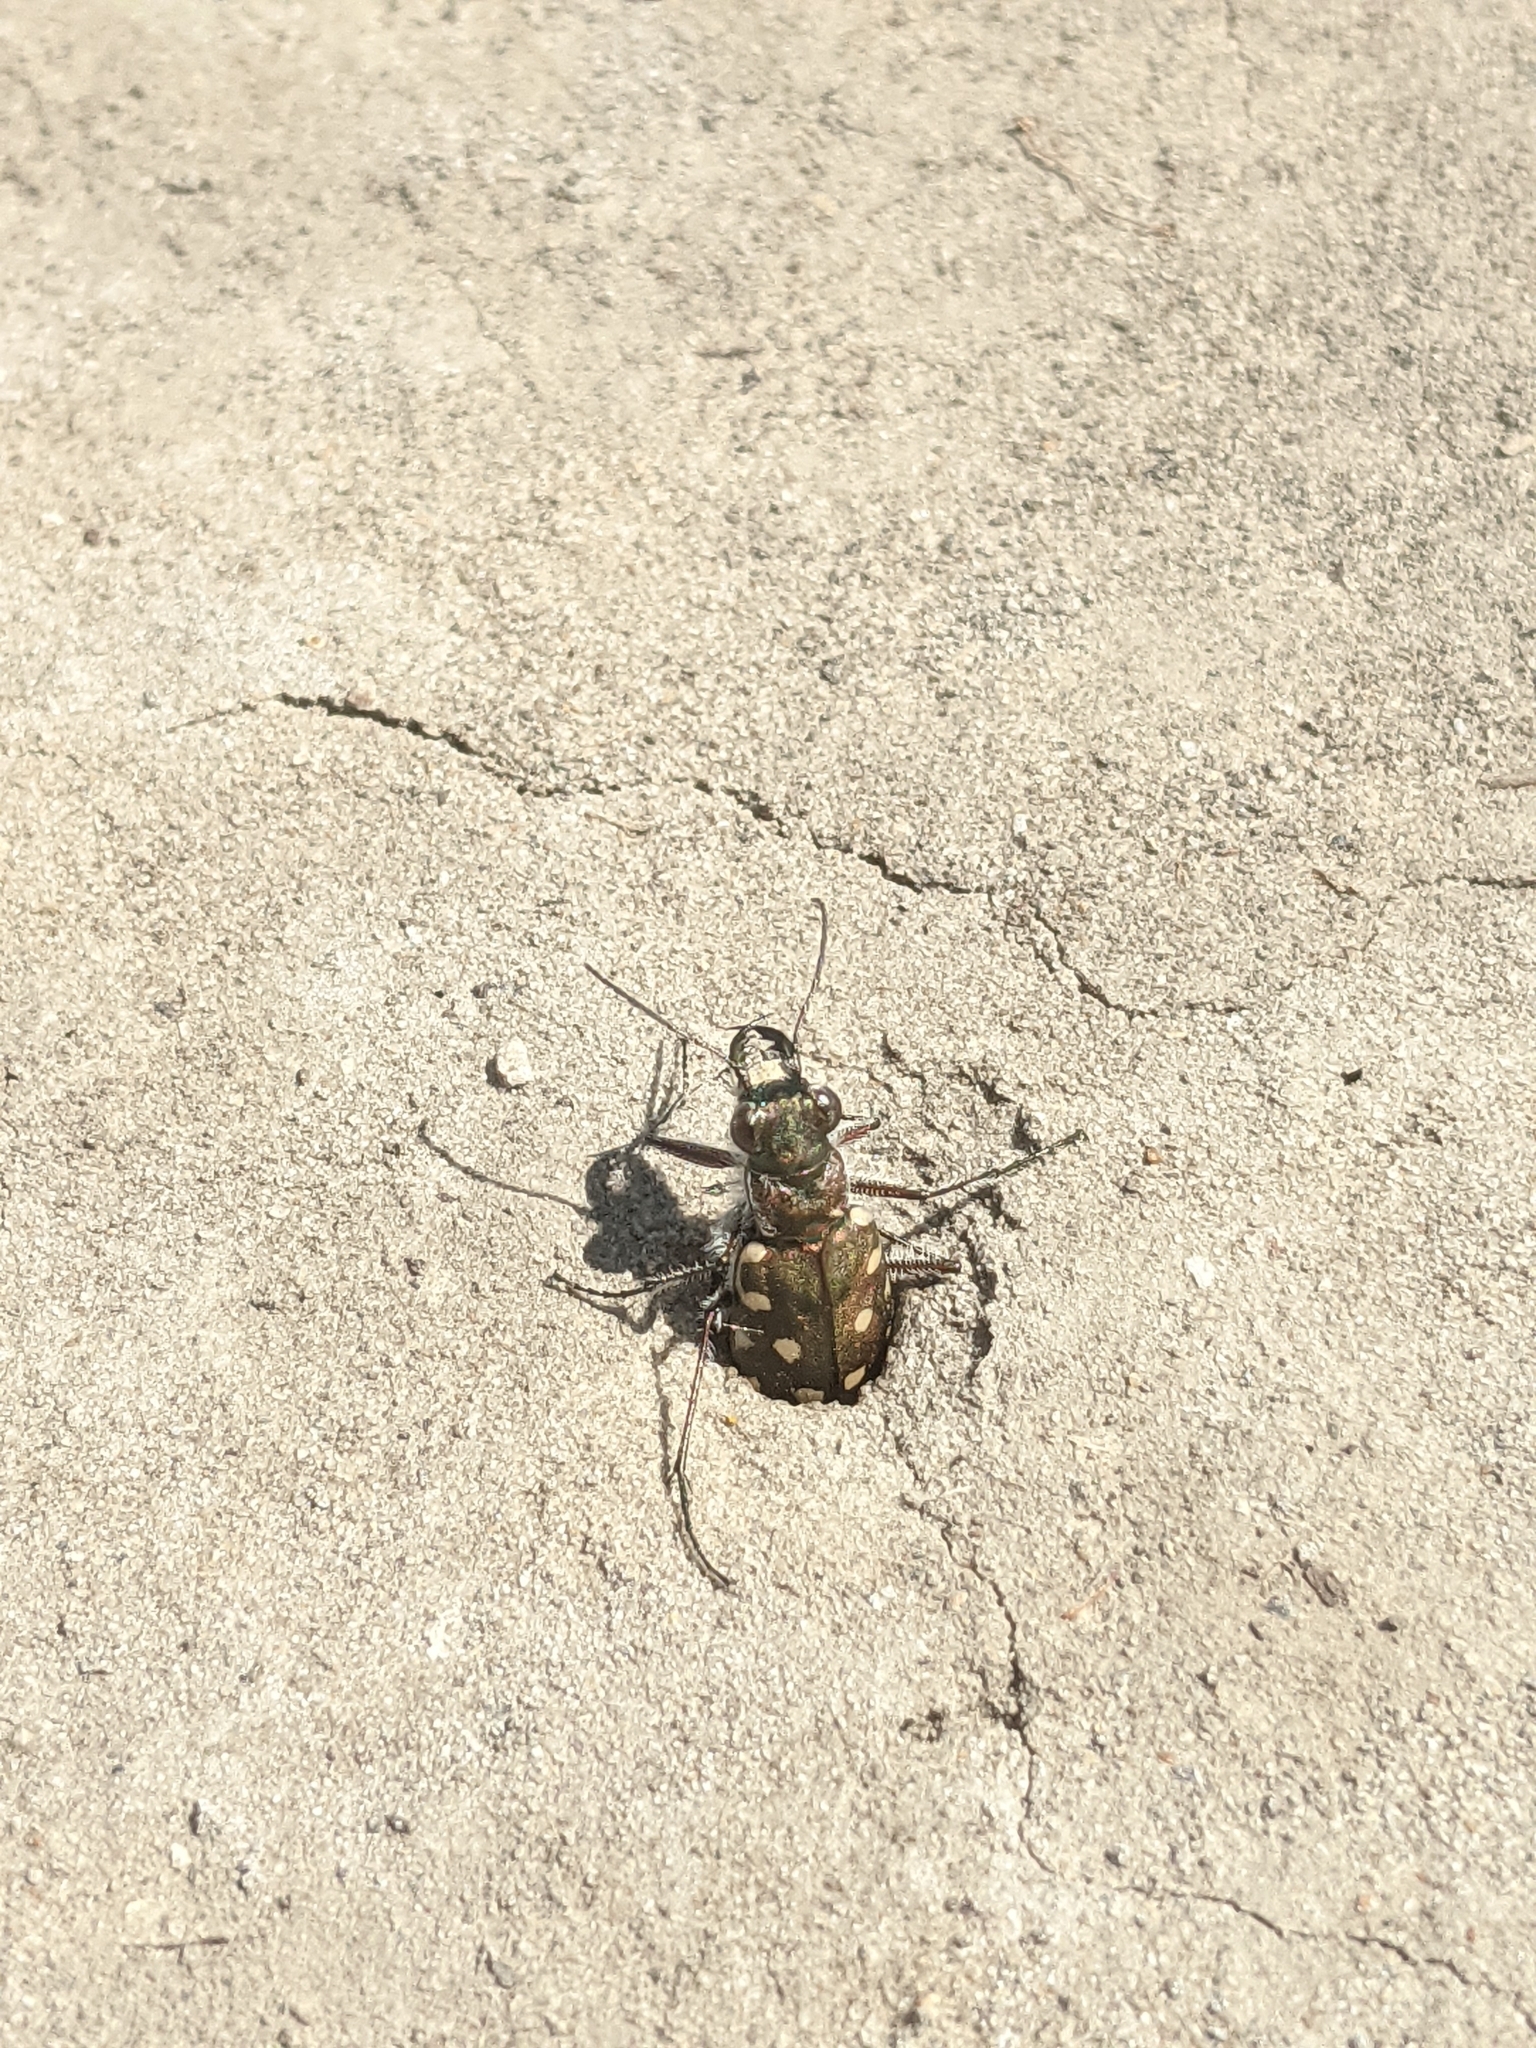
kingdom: Animalia
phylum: Arthropoda
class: Insecta
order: Coleoptera
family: Carabidae
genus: Cicindela
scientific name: Cicindela littoralis
